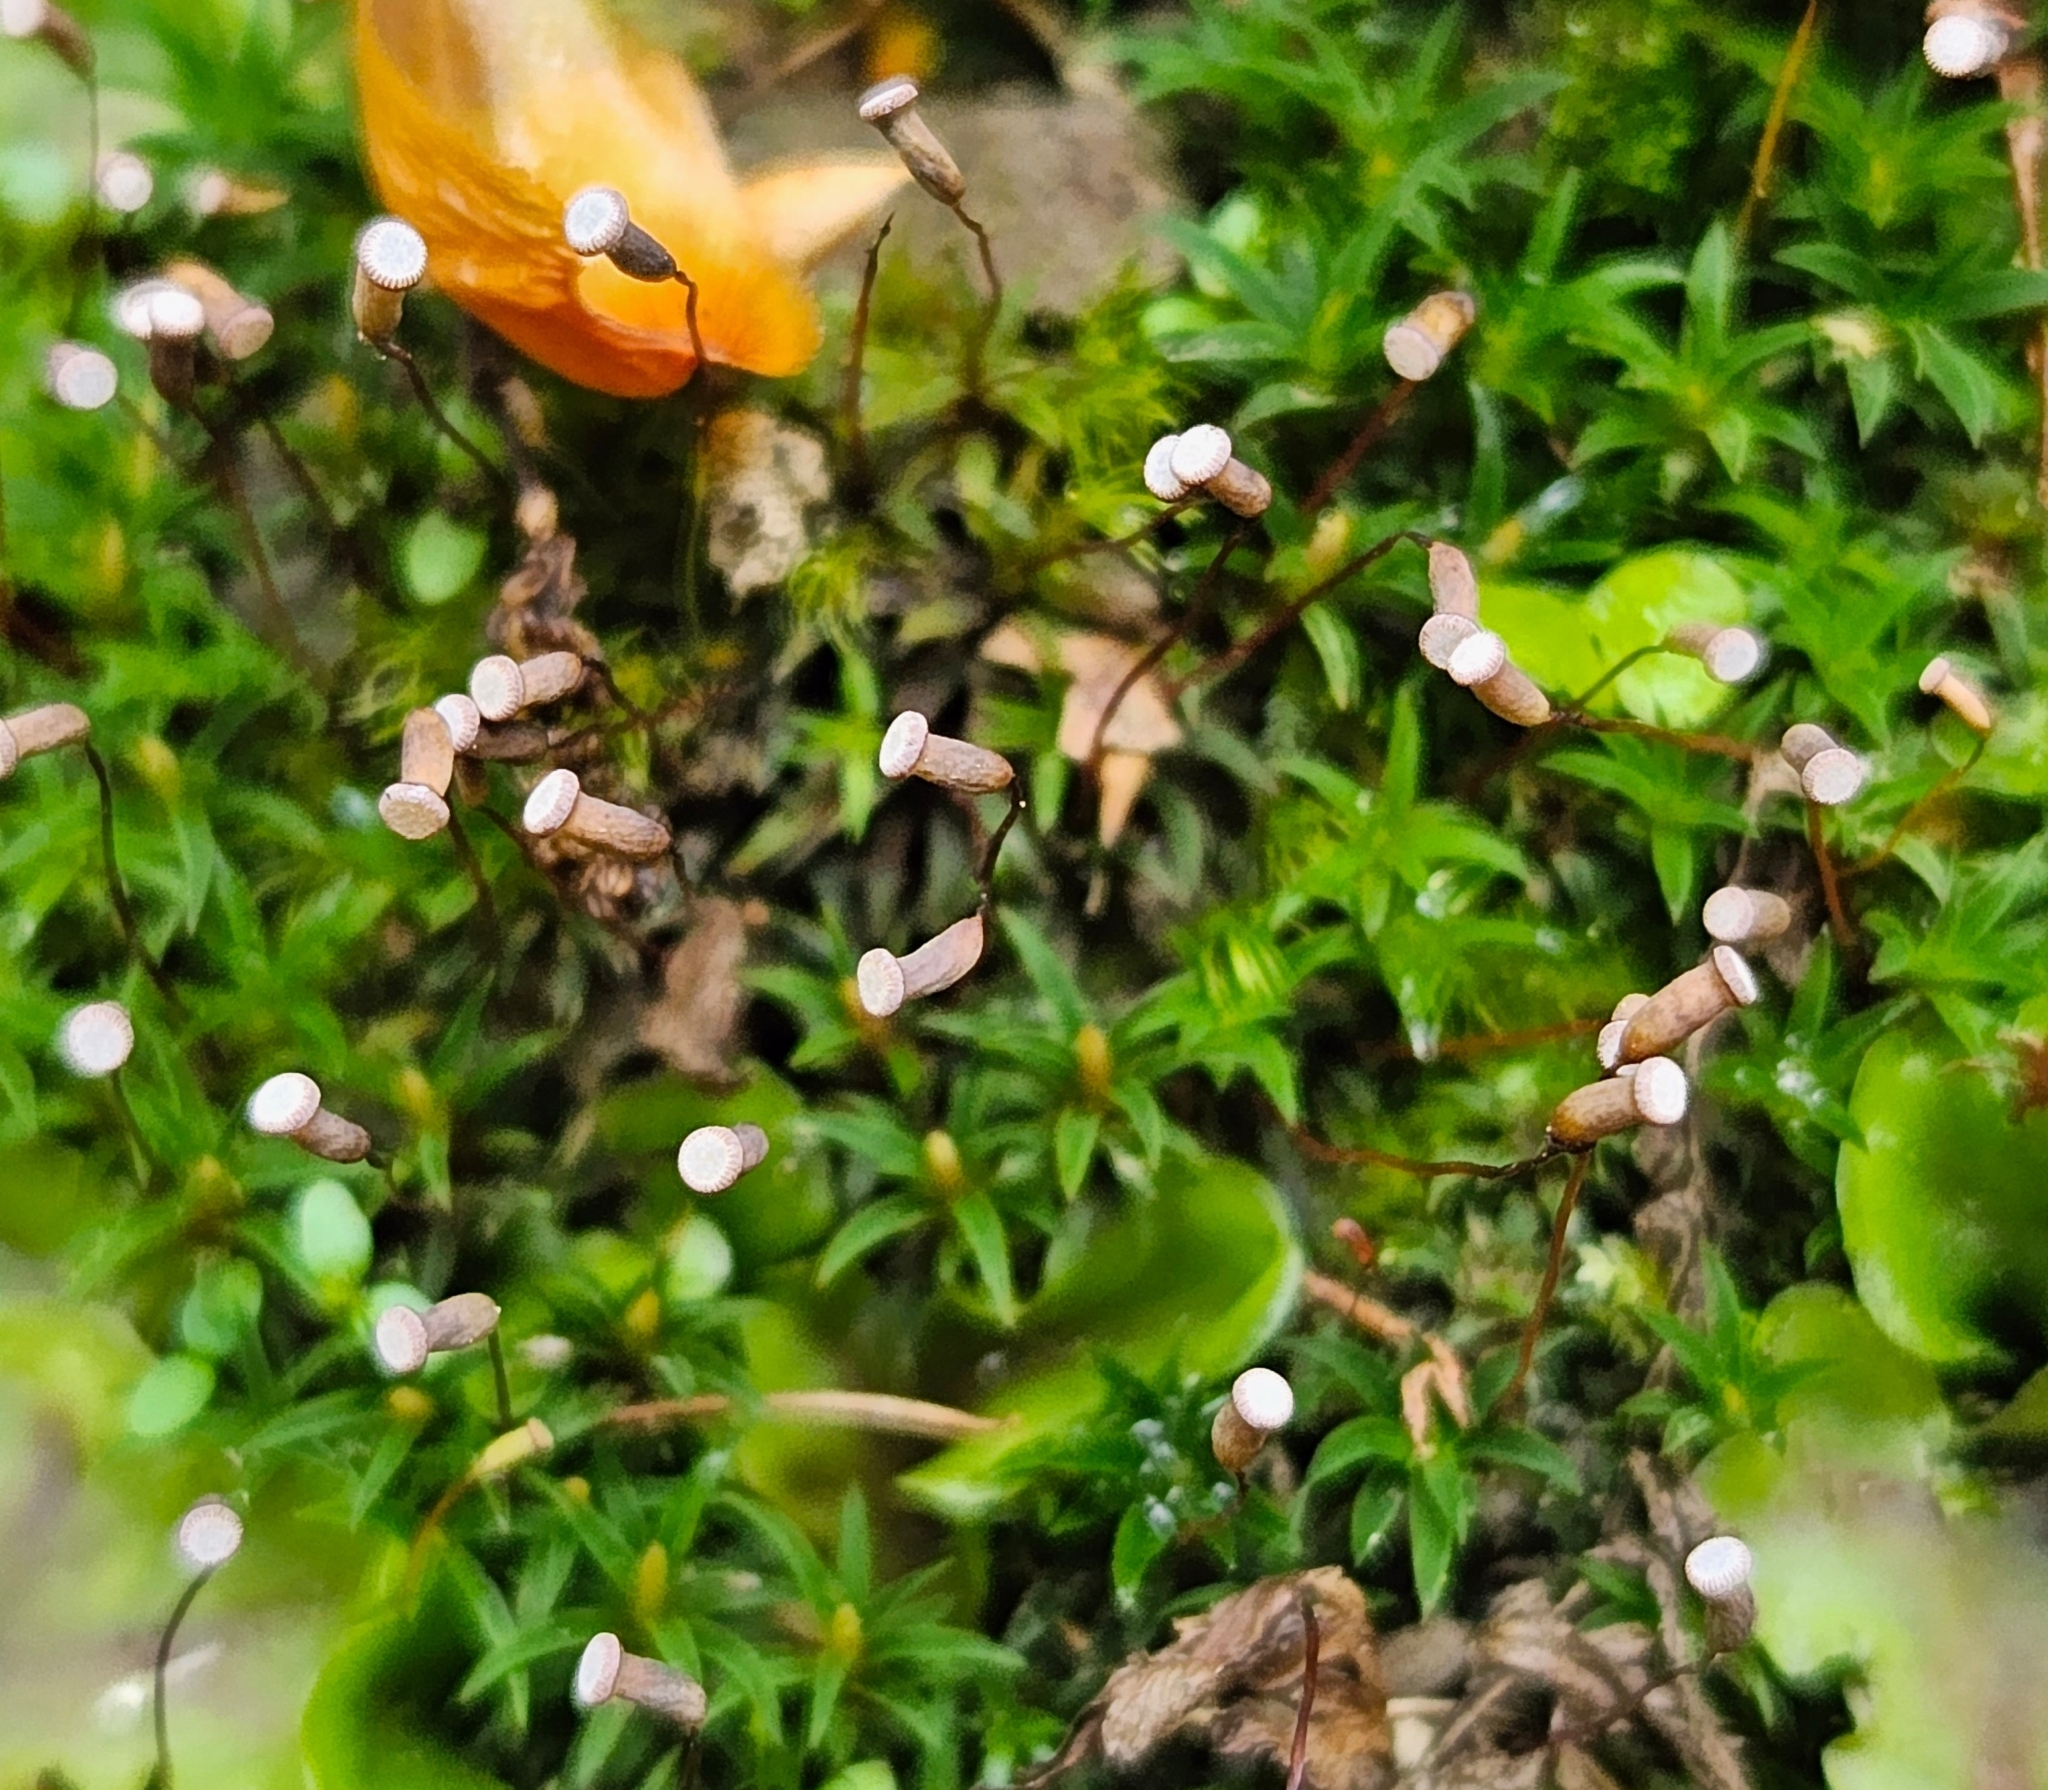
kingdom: Plantae
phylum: Bryophyta
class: Polytrichopsida
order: Polytrichales
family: Polytrichaceae
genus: Pogonatum
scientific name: Pogonatum aloides
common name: Aloe haircap
